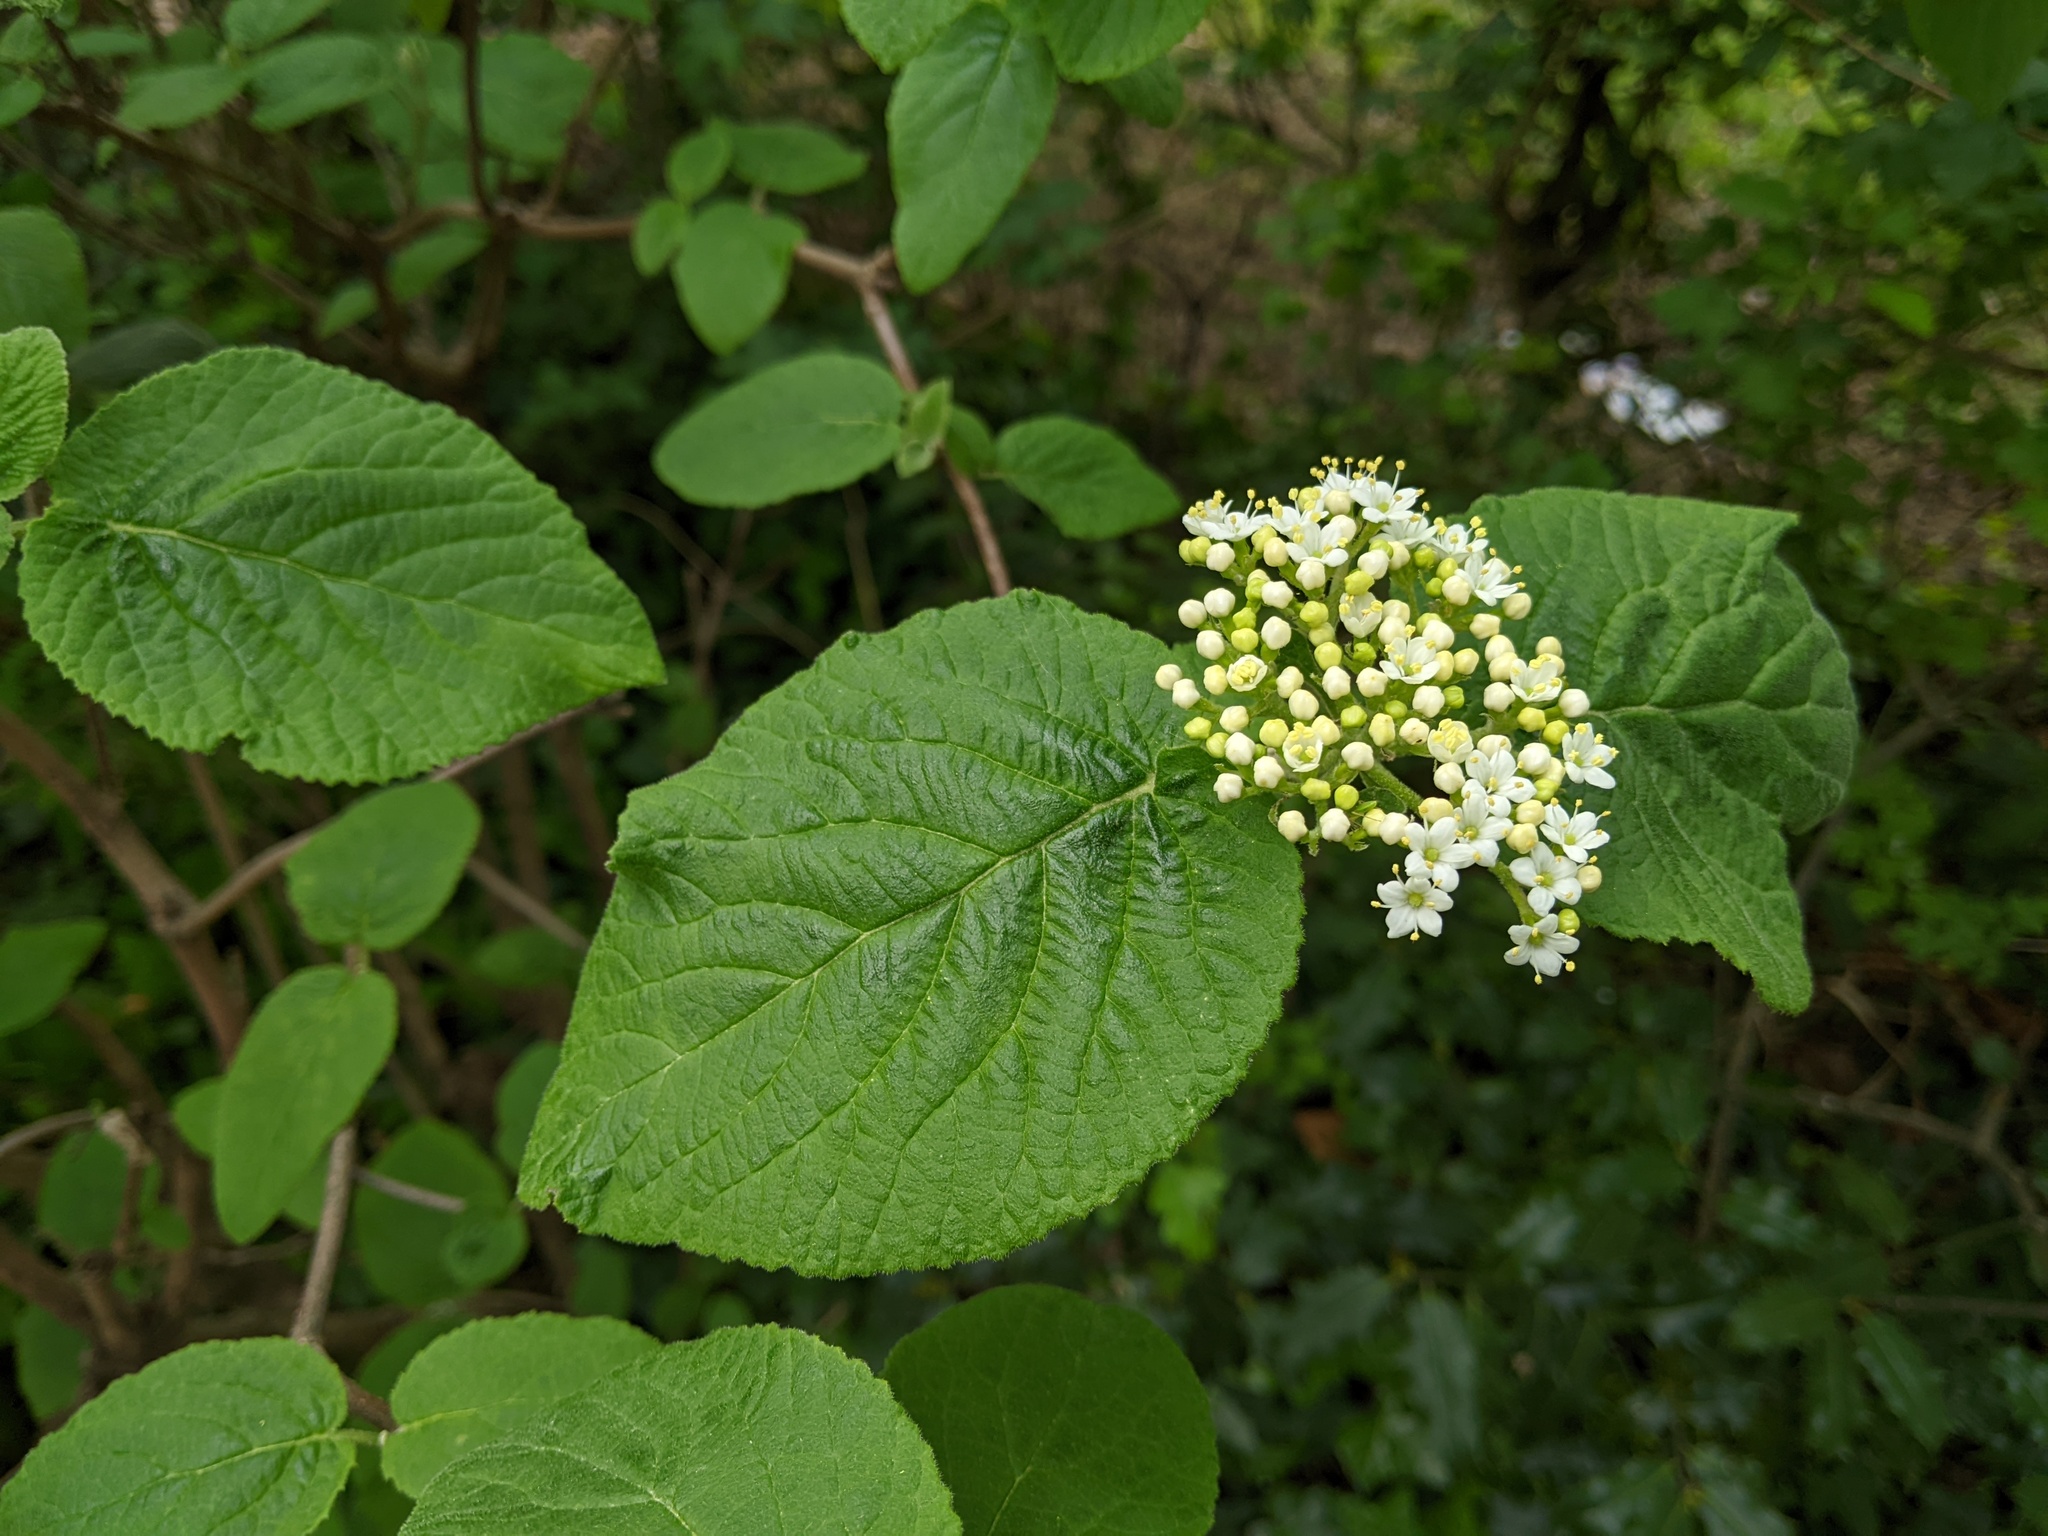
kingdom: Plantae
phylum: Tracheophyta
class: Magnoliopsida
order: Dipsacales
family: Viburnaceae
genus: Viburnum
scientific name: Viburnum lantana
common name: Wayfaring tree
